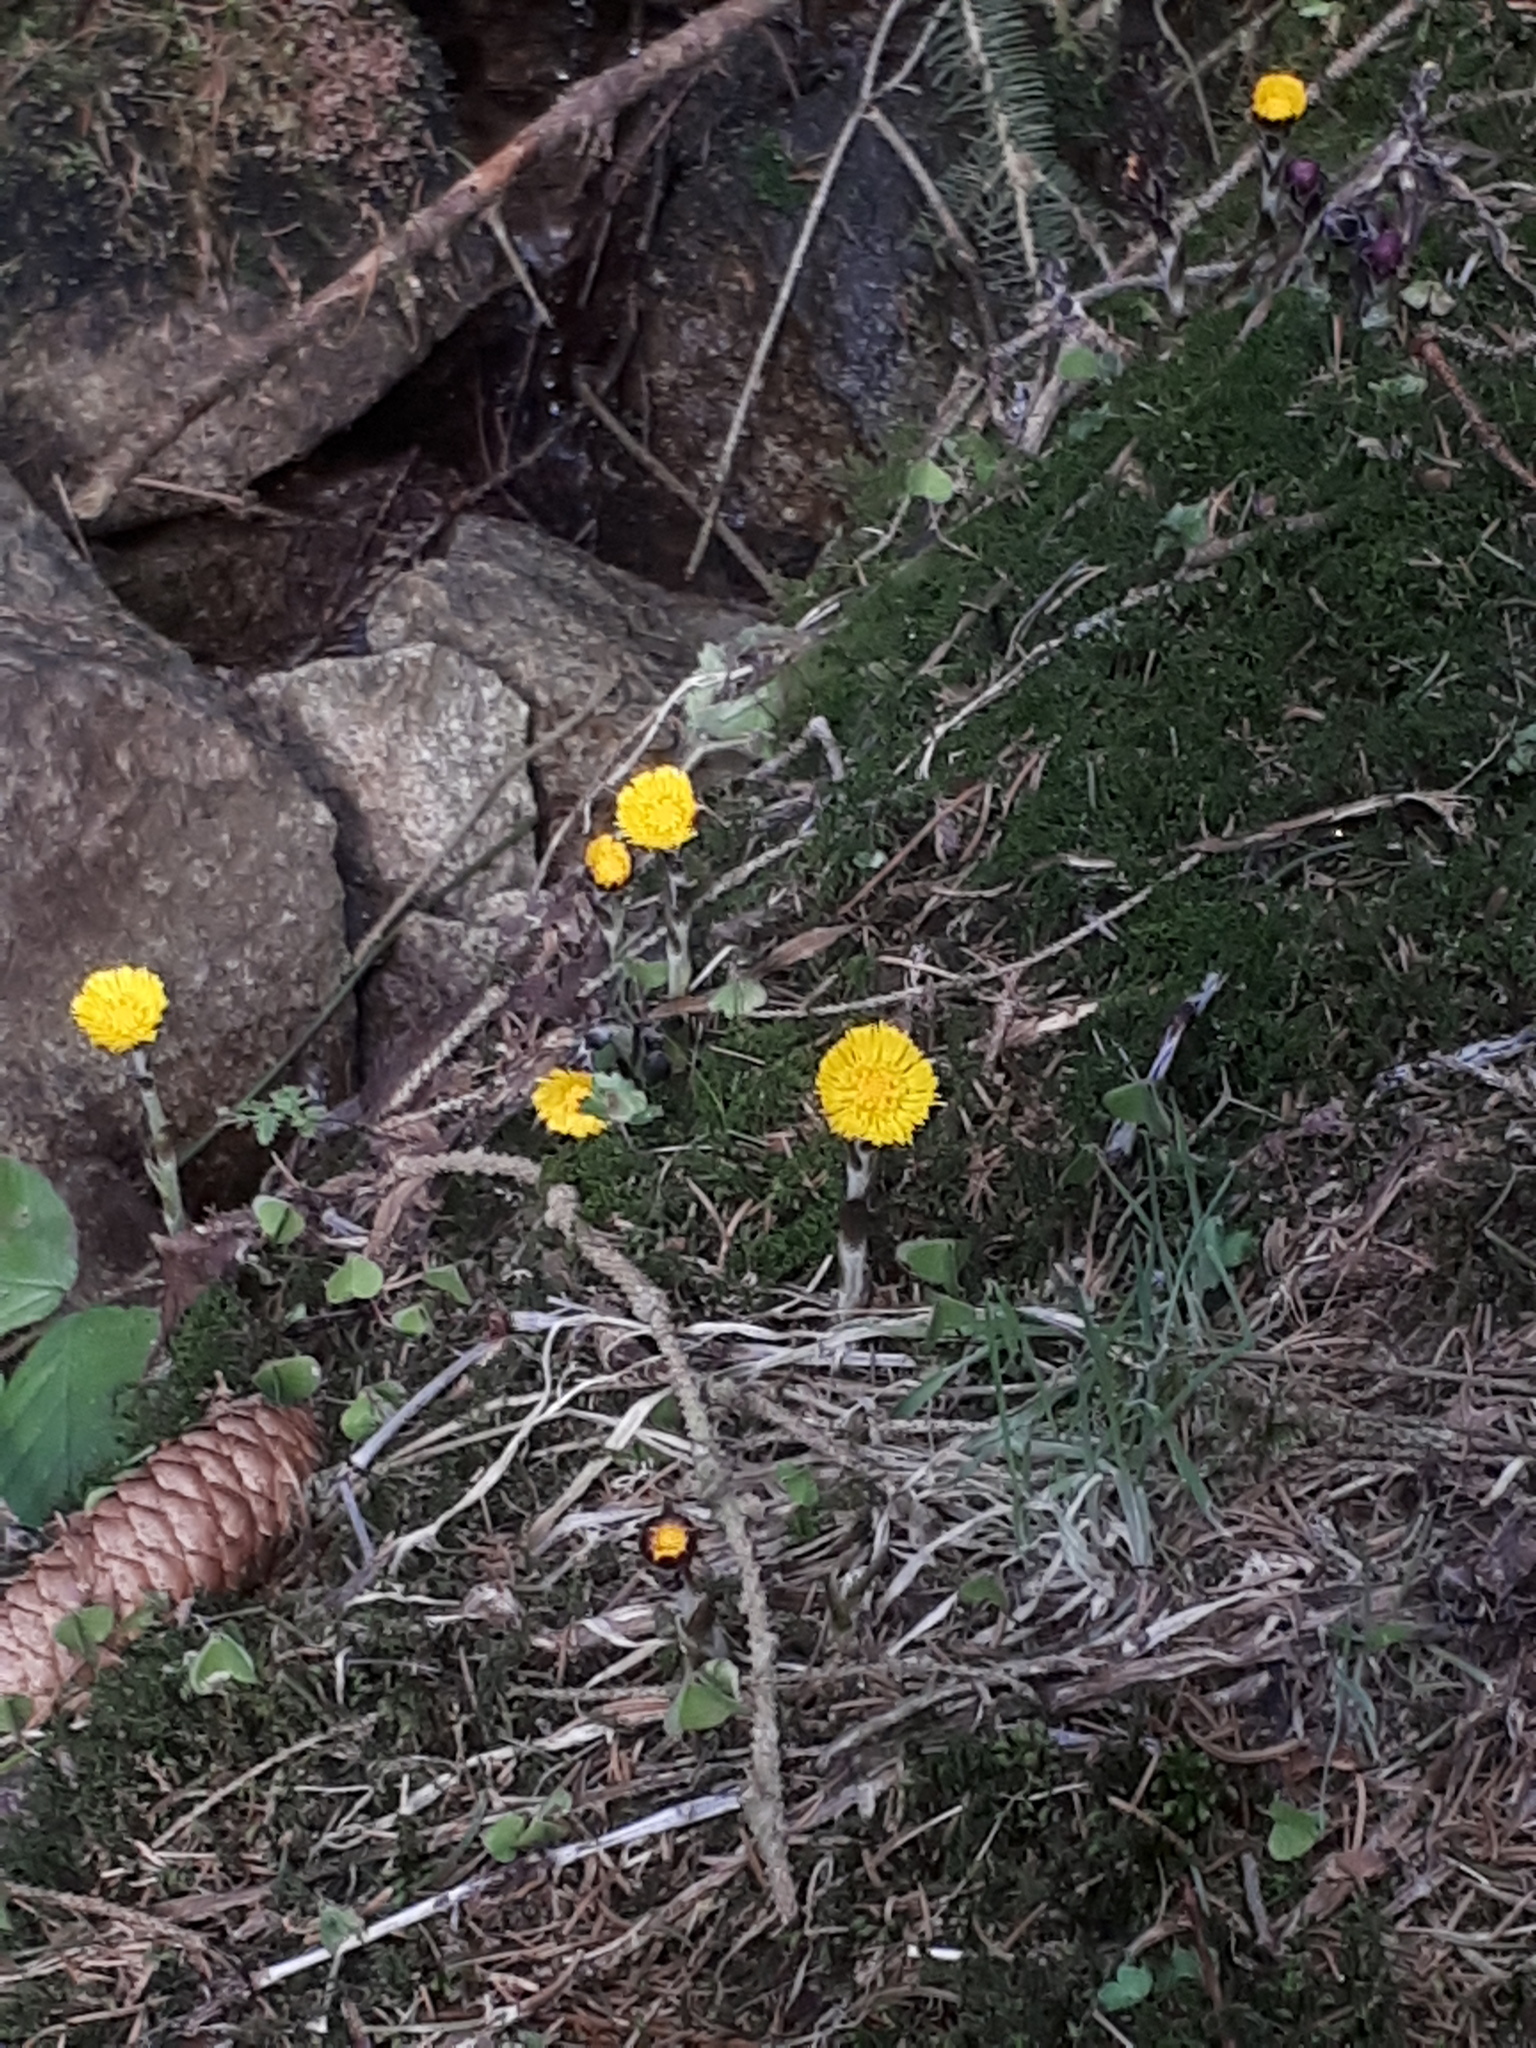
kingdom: Plantae
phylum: Tracheophyta
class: Magnoliopsida
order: Asterales
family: Asteraceae
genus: Tussilago
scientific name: Tussilago farfara
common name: Coltsfoot
